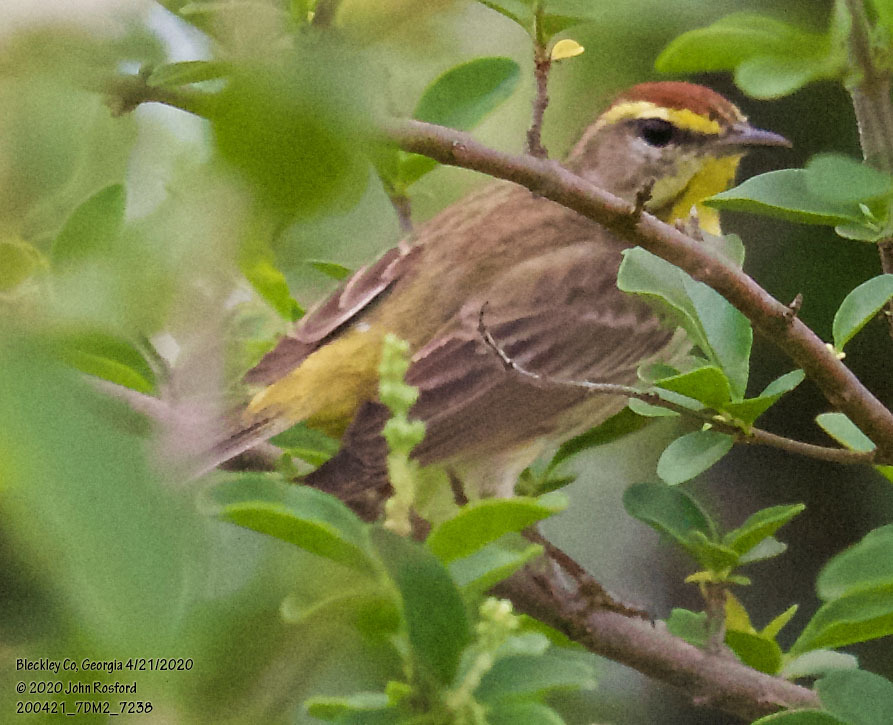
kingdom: Animalia
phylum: Chordata
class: Aves
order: Passeriformes
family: Parulidae
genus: Setophaga
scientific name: Setophaga palmarum
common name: Palm warbler
